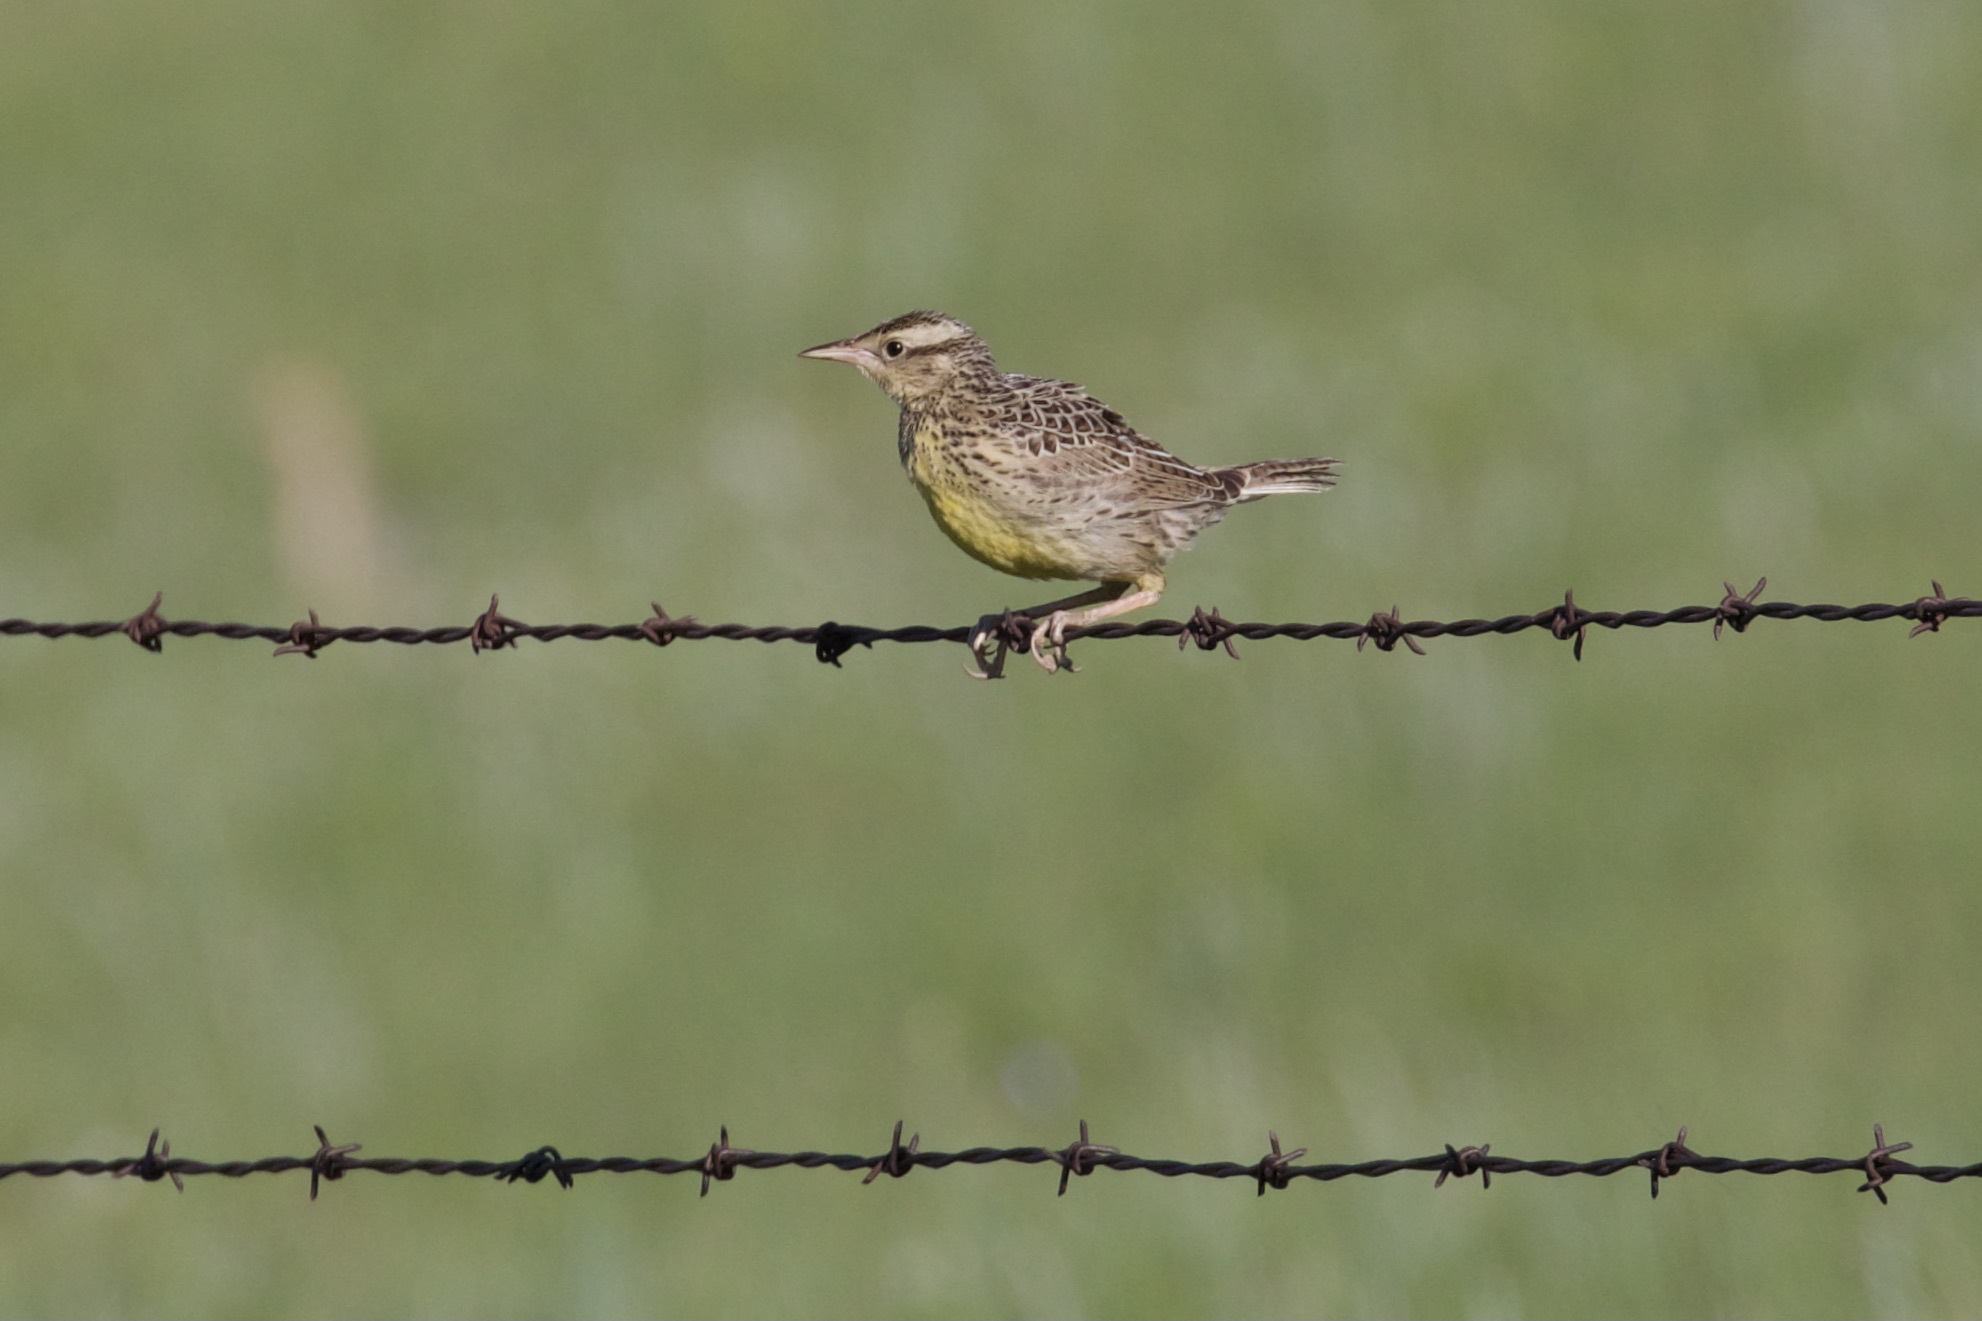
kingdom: Animalia
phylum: Chordata
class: Aves
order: Passeriformes
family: Icteridae
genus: Sturnella
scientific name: Sturnella neglecta
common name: Western meadowlark
